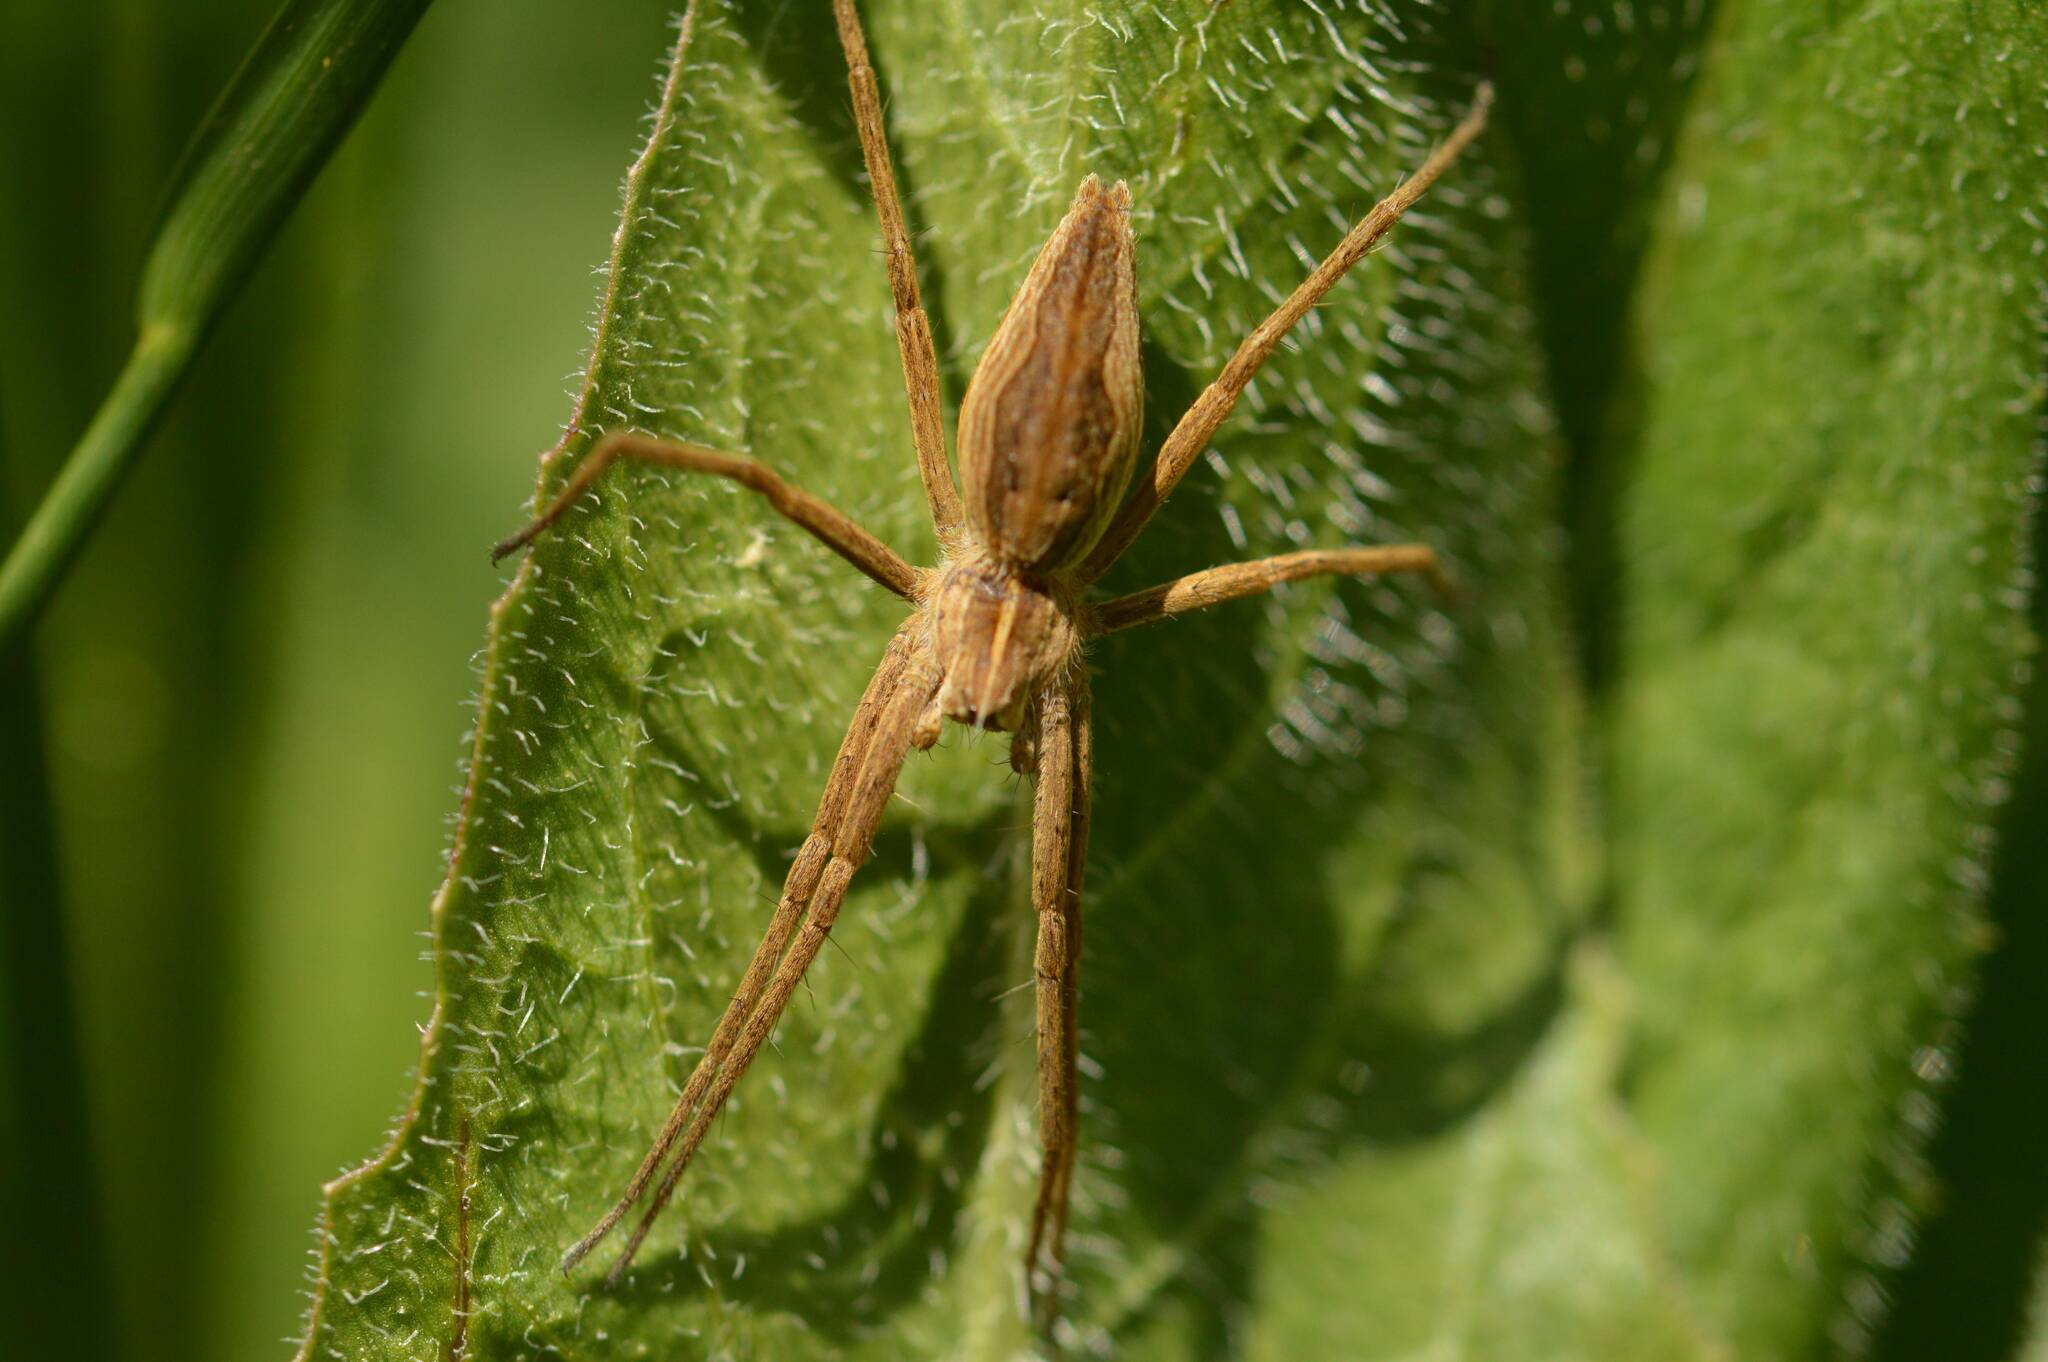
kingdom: Animalia
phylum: Arthropoda
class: Arachnida
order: Araneae
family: Pisauridae
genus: Pisaura
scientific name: Pisaura mirabilis
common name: Tent spider
